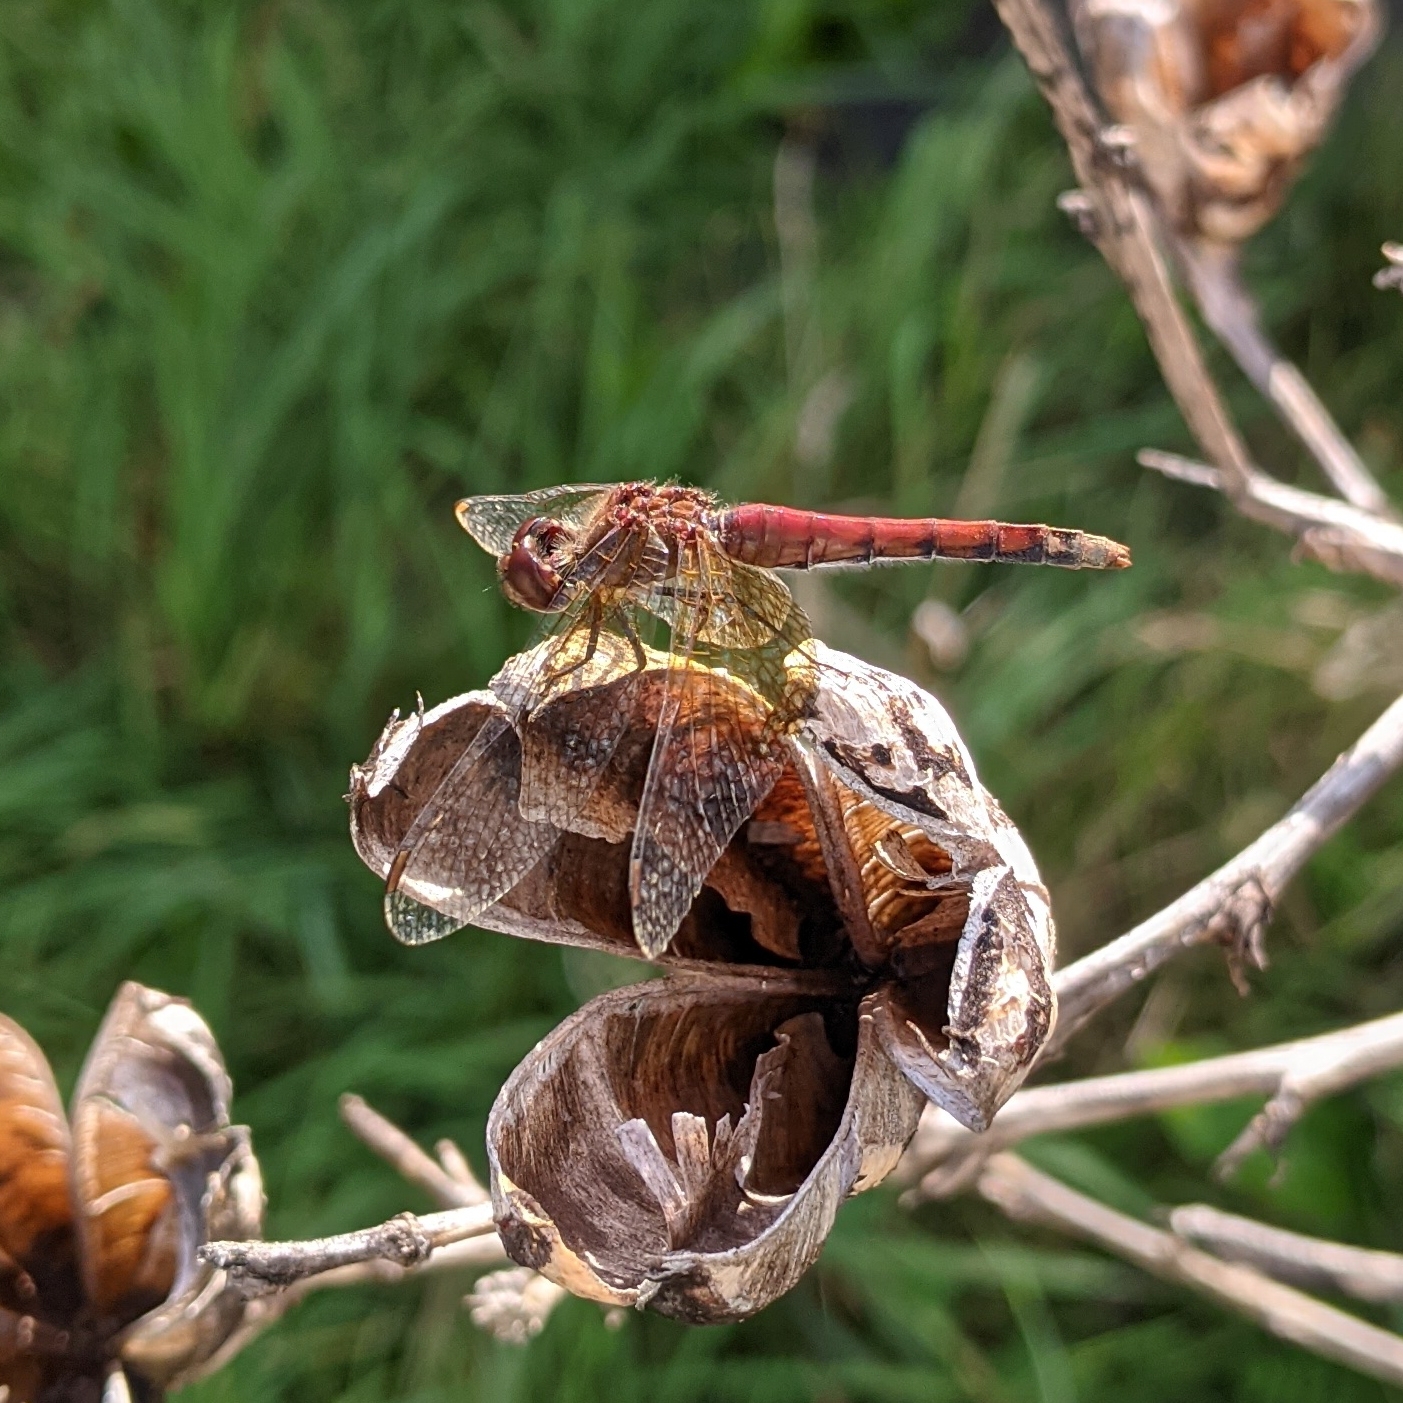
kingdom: Animalia
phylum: Arthropoda
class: Insecta
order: Odonata
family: Libellulidae
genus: Sympetrum
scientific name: Sympetrum semicinctum
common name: Band-winged meadowhawk
